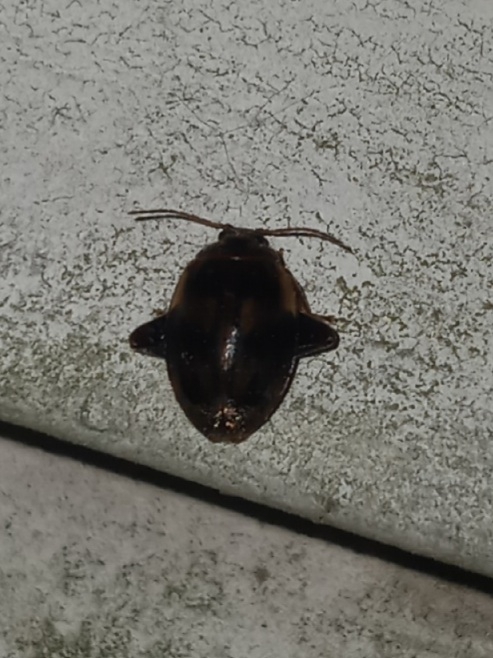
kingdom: Animalia
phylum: Arthropoda
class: Insecta
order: Coleoptera
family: Scirtidae
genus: Ora
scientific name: Ora texana
